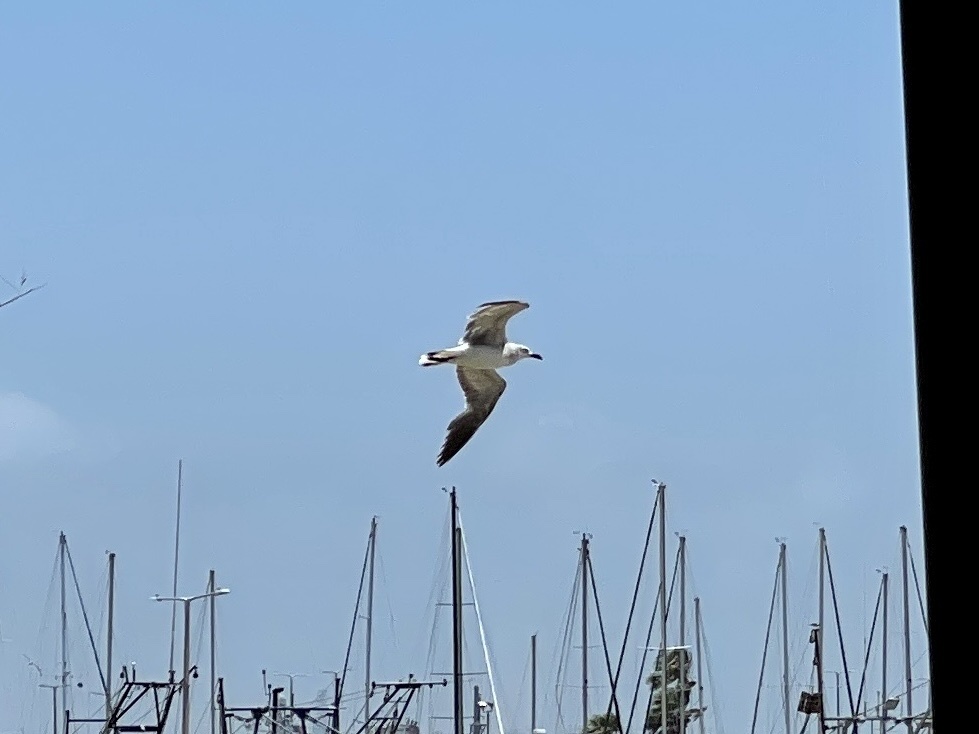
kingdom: Animalia
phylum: Chordata
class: Aves
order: Charadriiformes
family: Laridae
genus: Leucophaeus
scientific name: Leucophaeus atricilla
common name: Laughing gull
